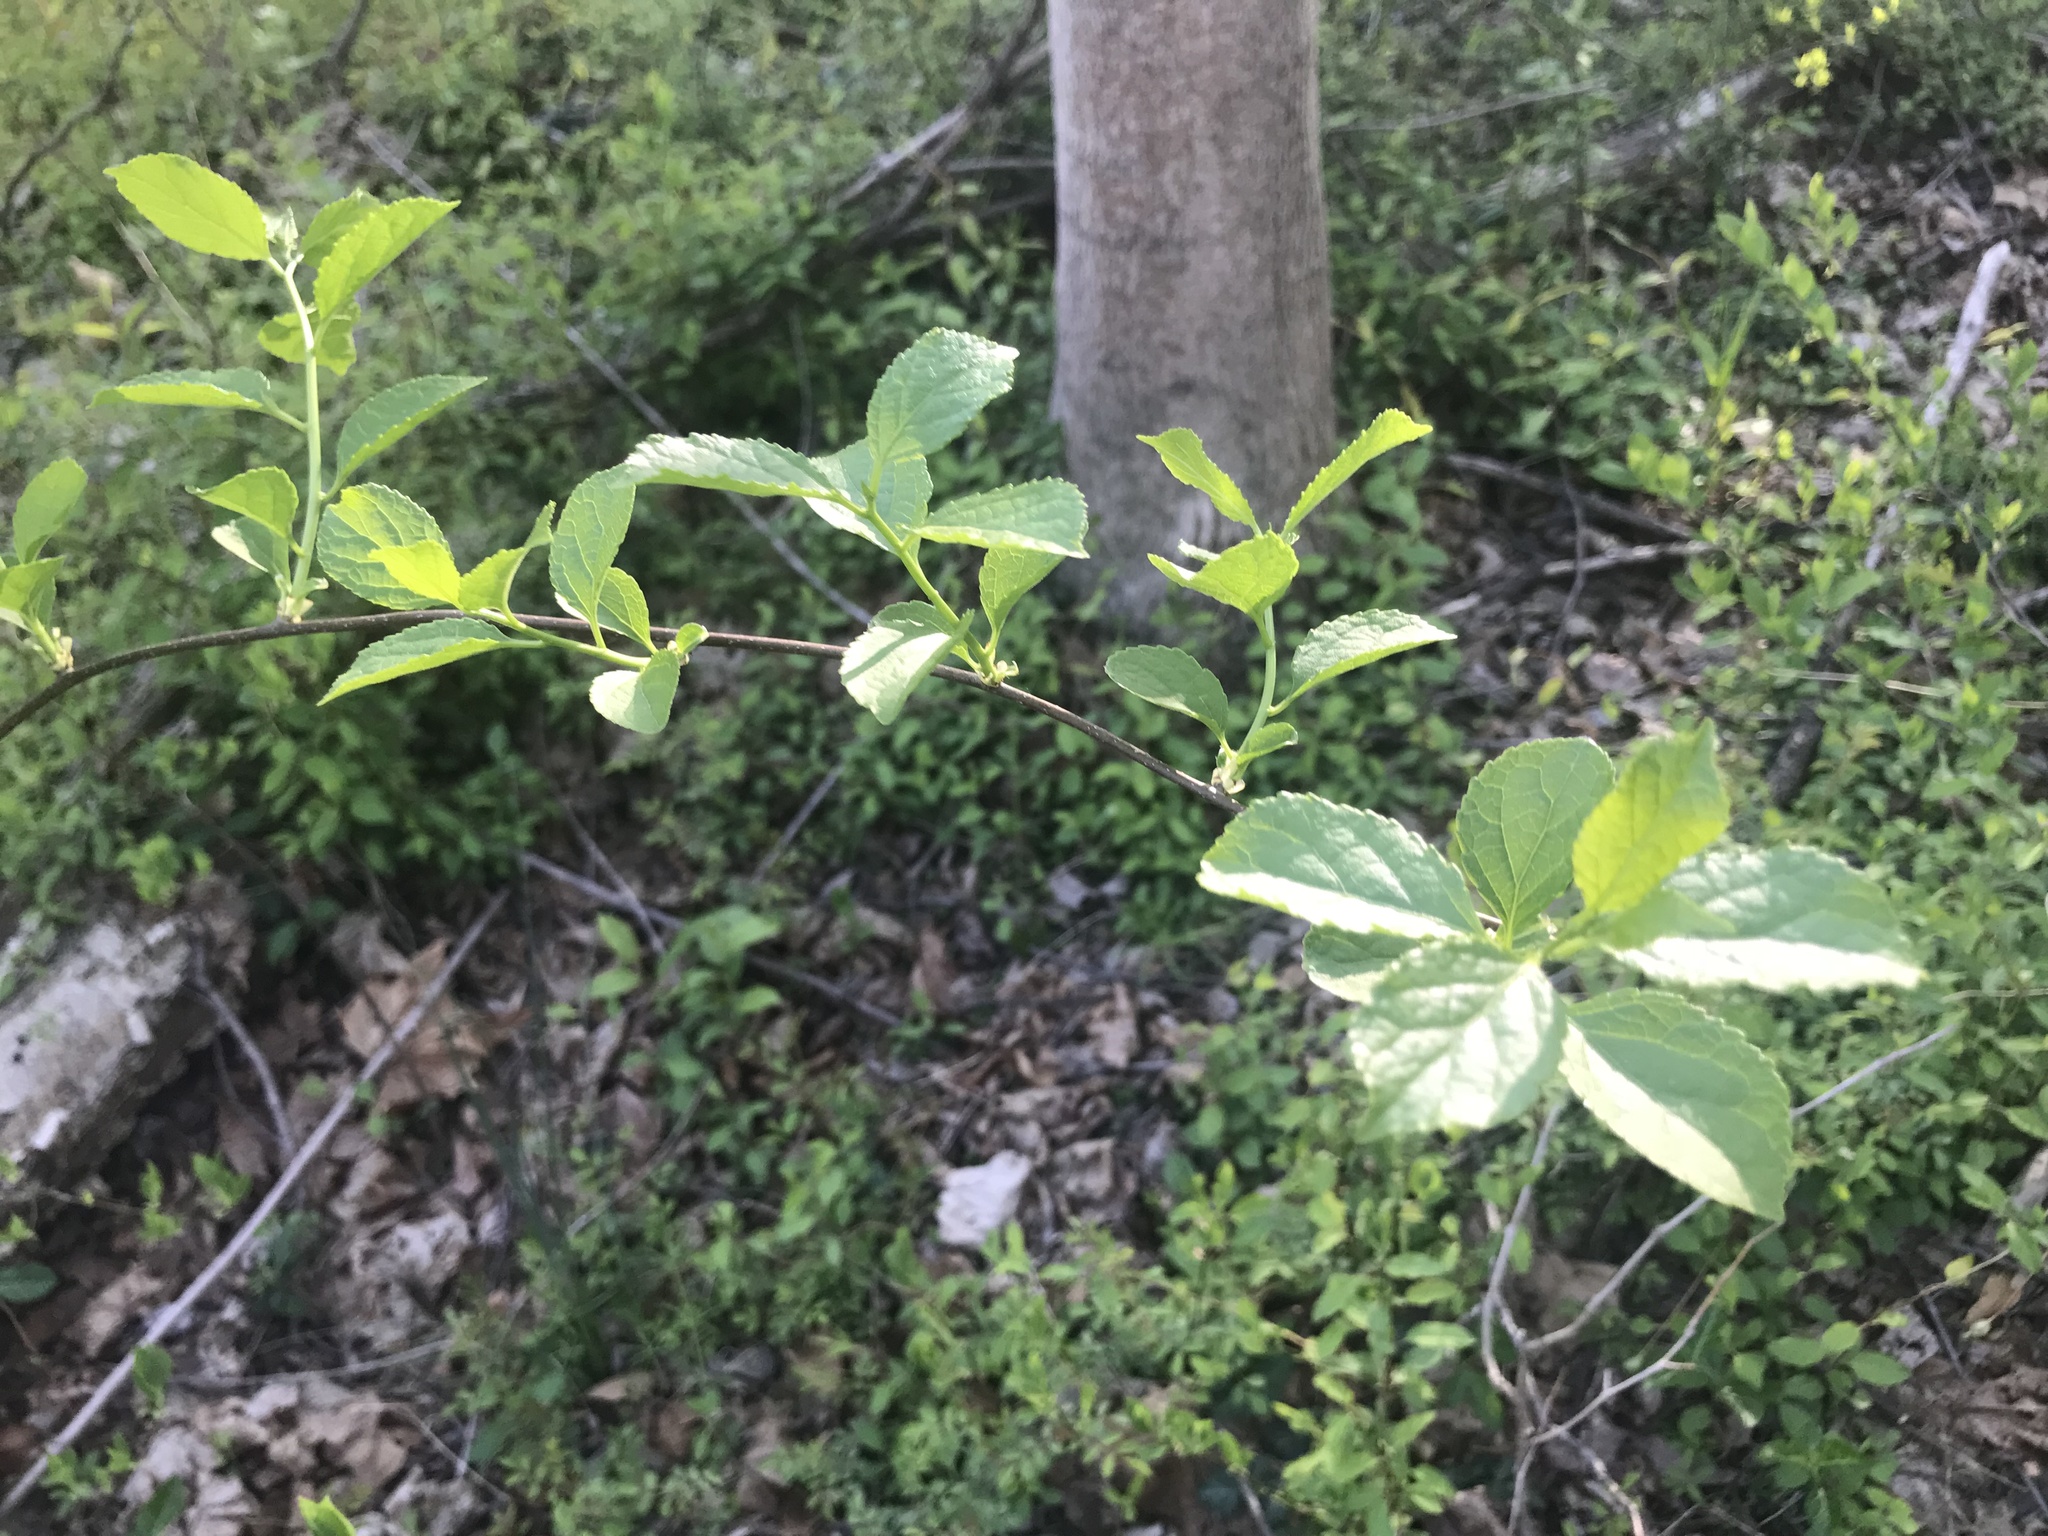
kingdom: Plantae
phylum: Tracheophyta
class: Magnoliopsida
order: Celastrales
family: Celastraceae
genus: Celastrus
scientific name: Celastrus orbiculatus
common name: Oriental bittersweet
